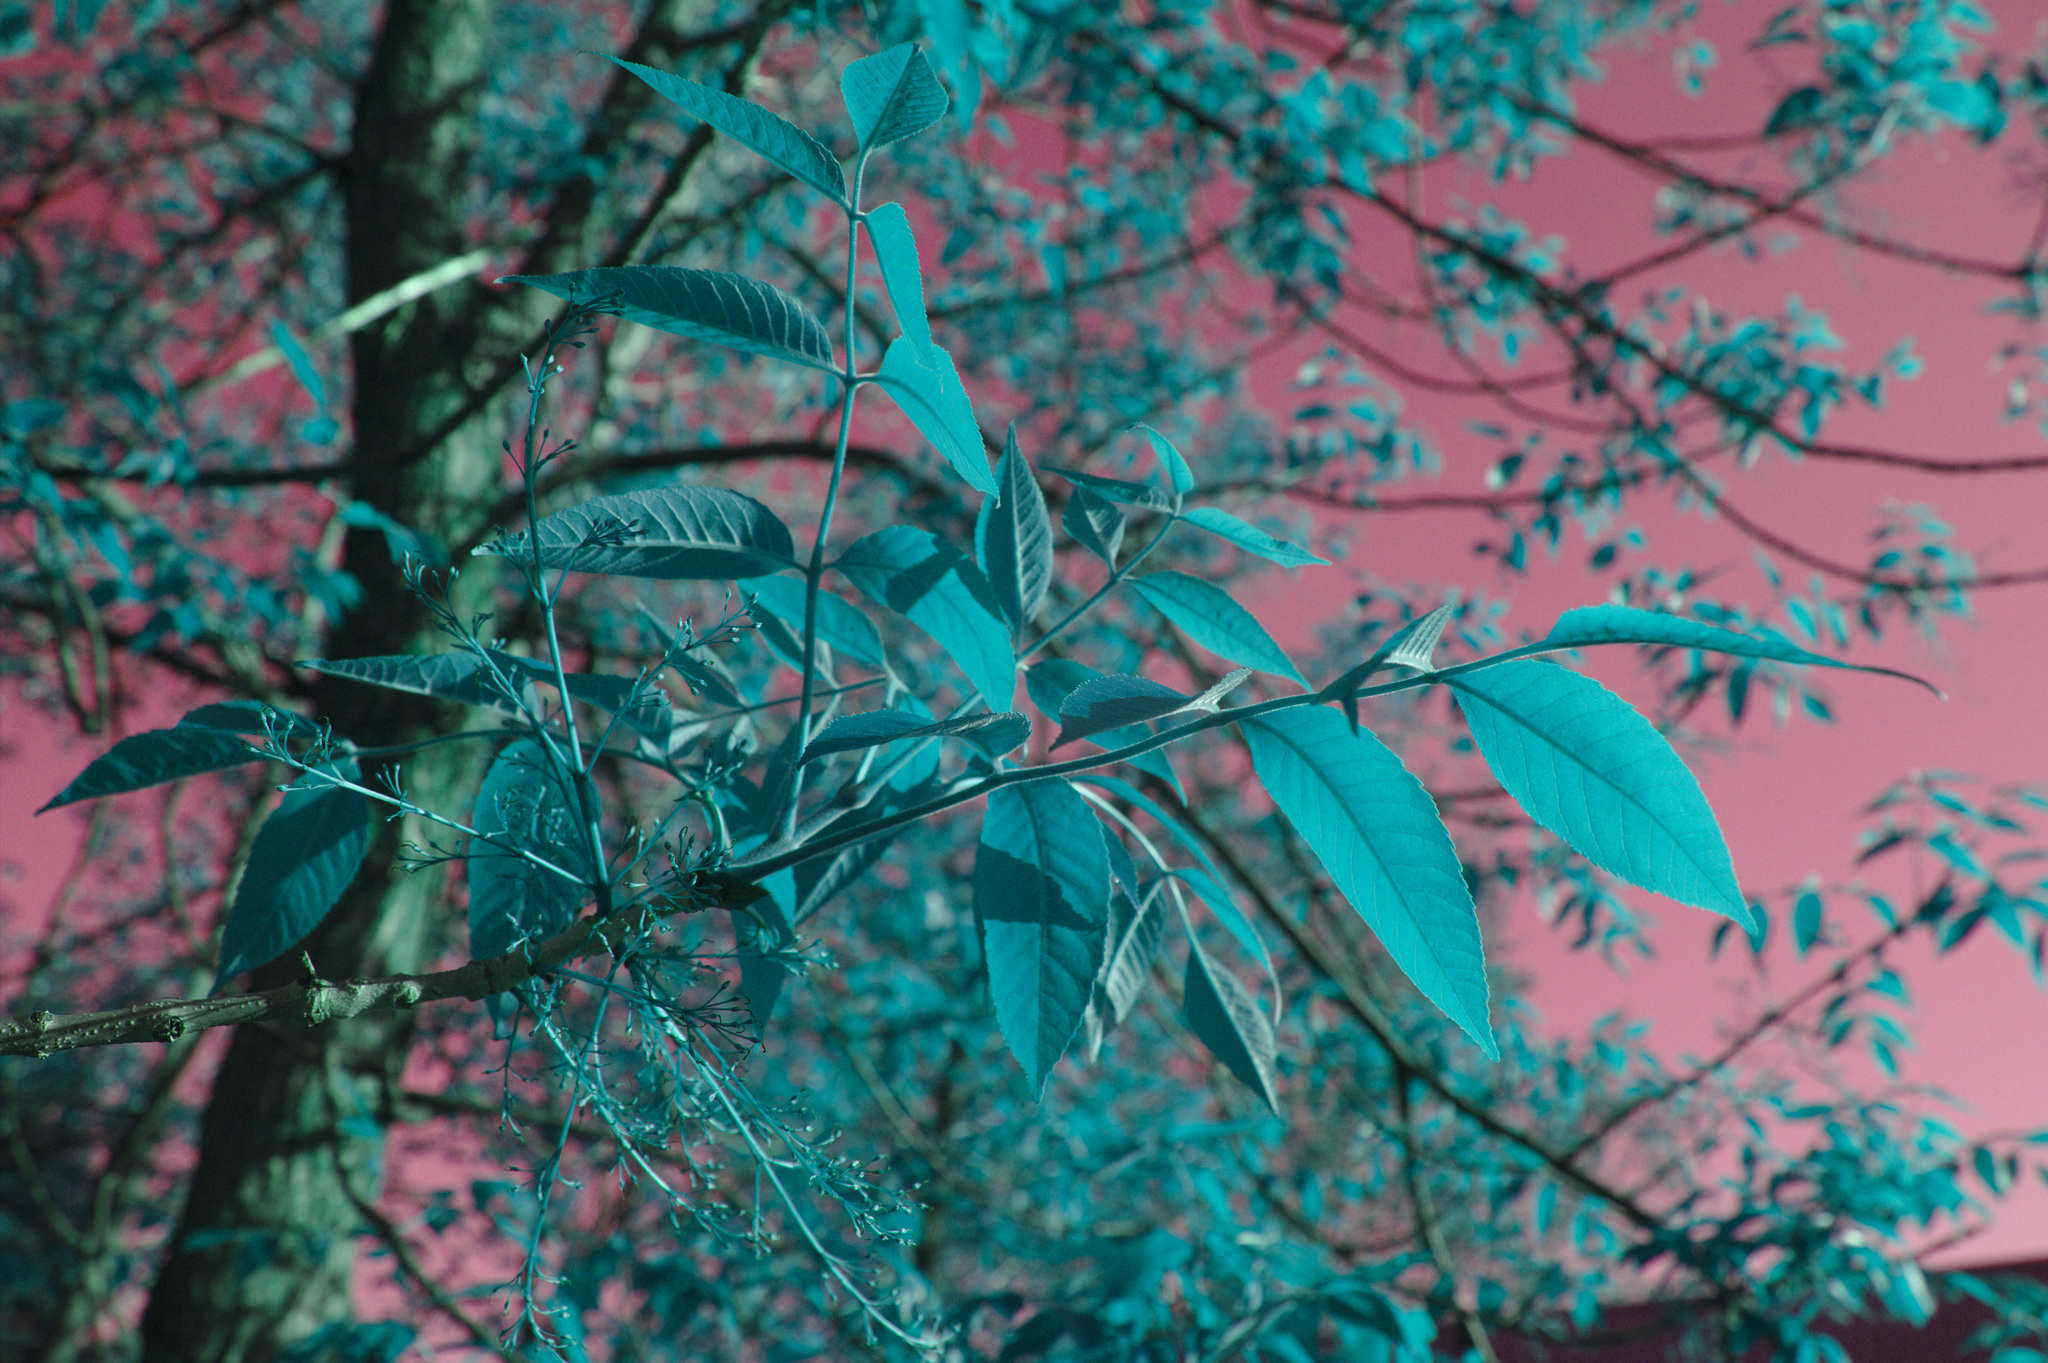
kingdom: Plantae
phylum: Tracheophyta
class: Magnoliopsida
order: Lamiales
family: Oleaceae
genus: Fraxinus
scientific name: Fraxinus pennsylvanica
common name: Green ash
